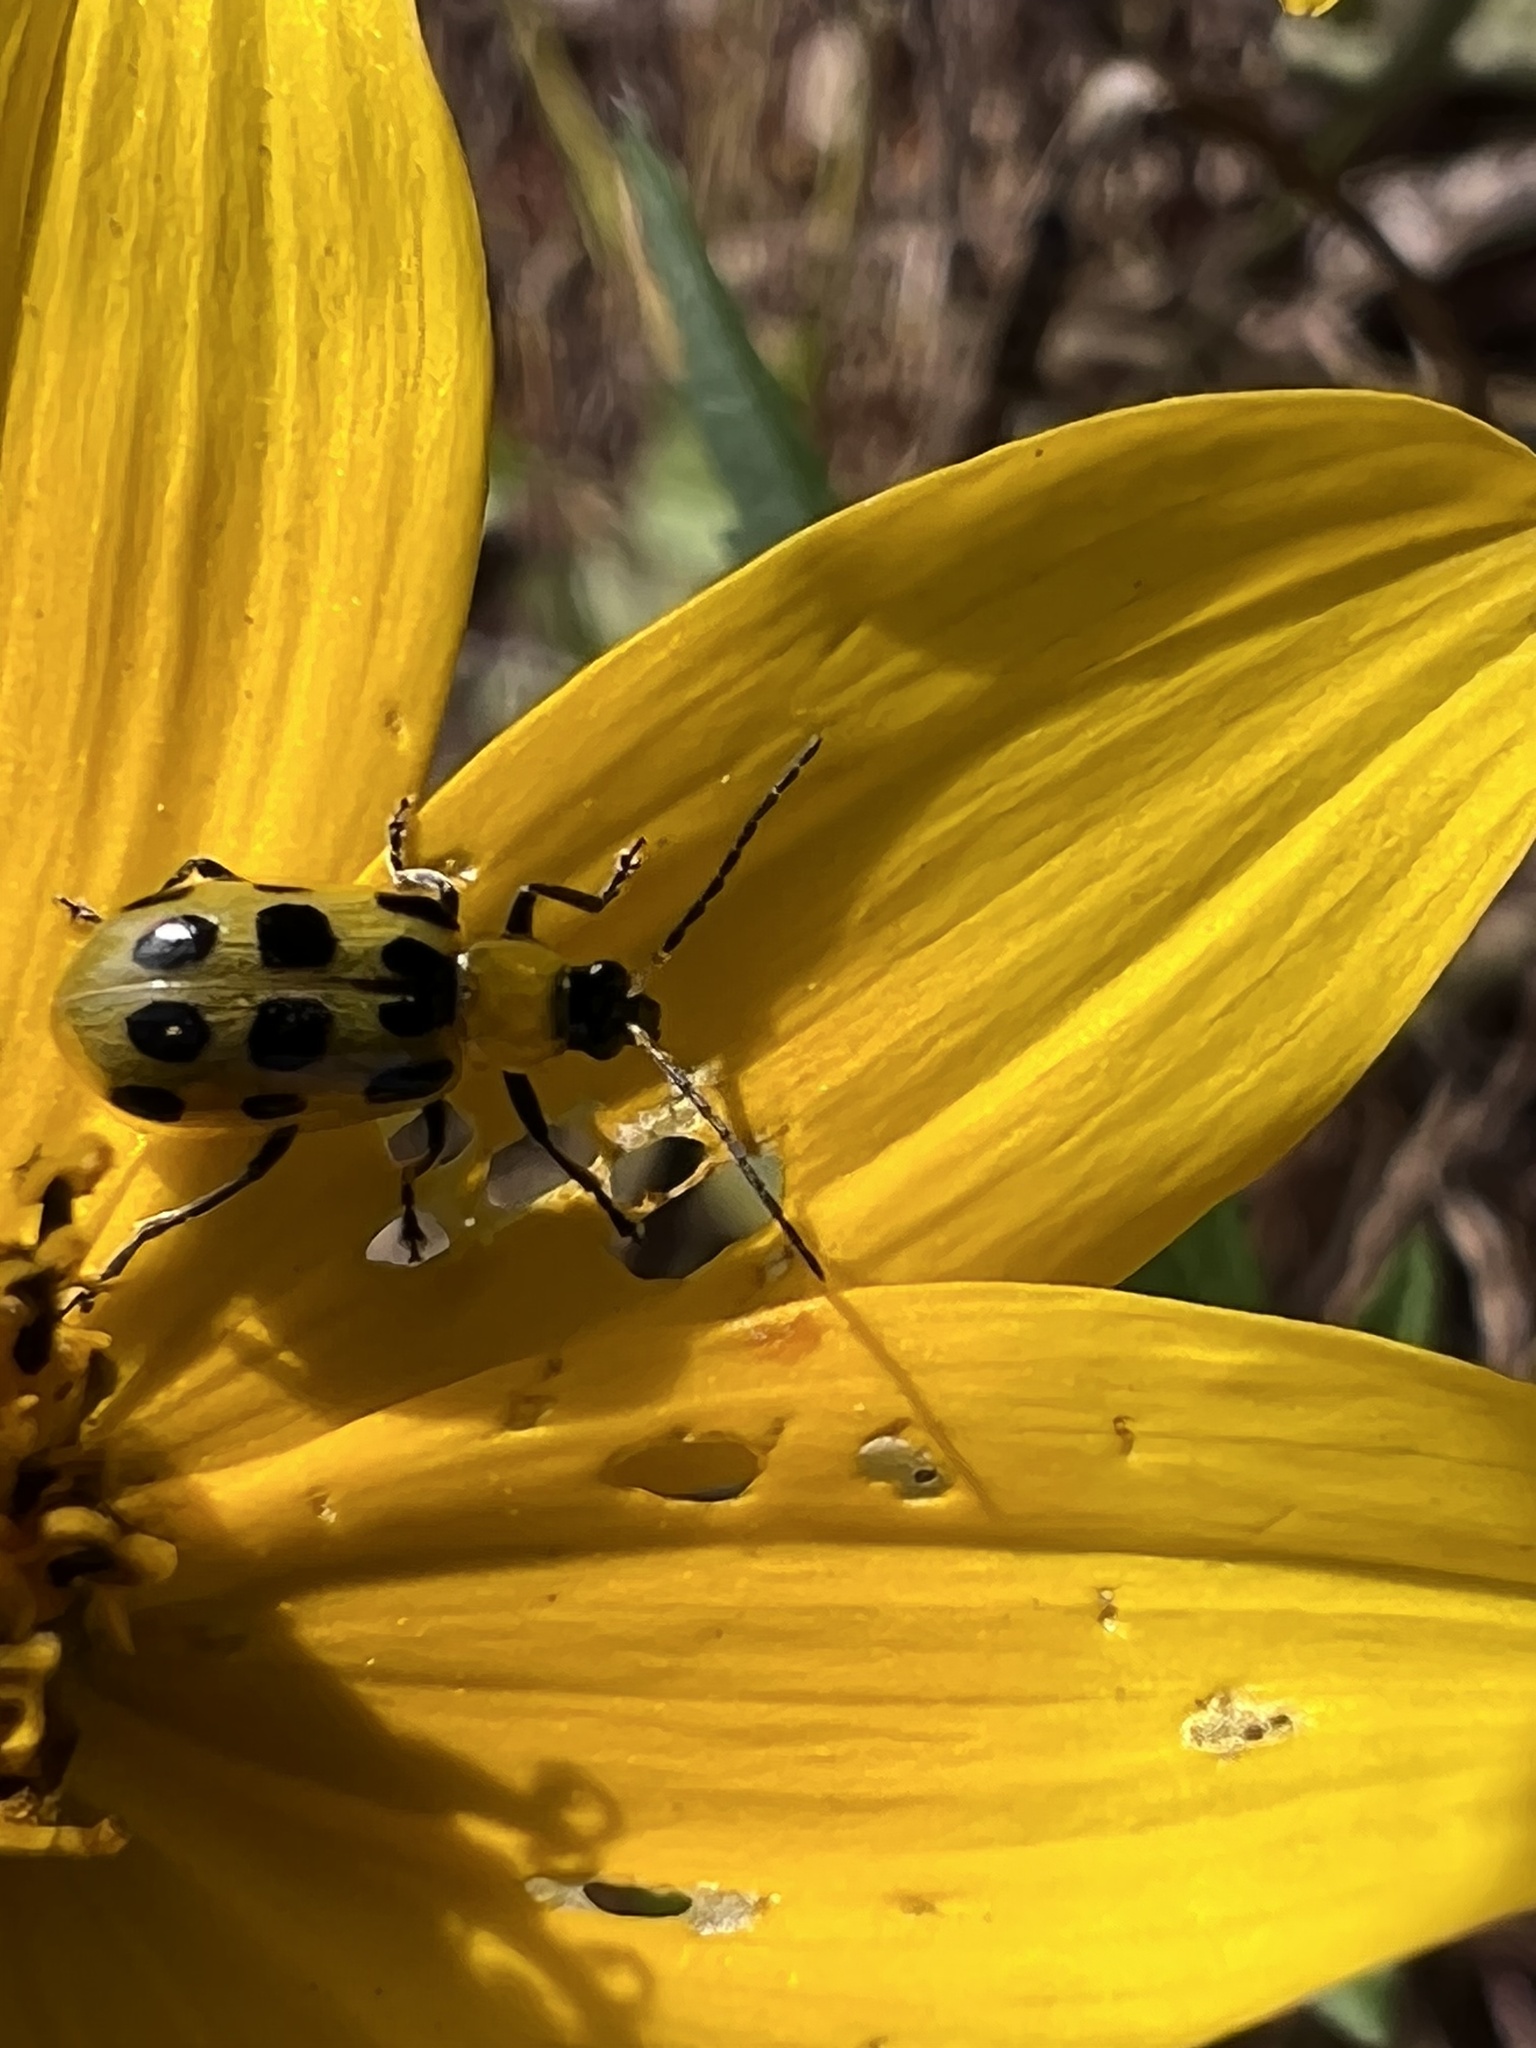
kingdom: Animalia
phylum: Arthropoda
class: Insecta
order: Coleoptera
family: Chrysomelidae
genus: Diabrotica
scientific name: Diabrotica undecimpunctata
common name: Spotted cucumber beetle
